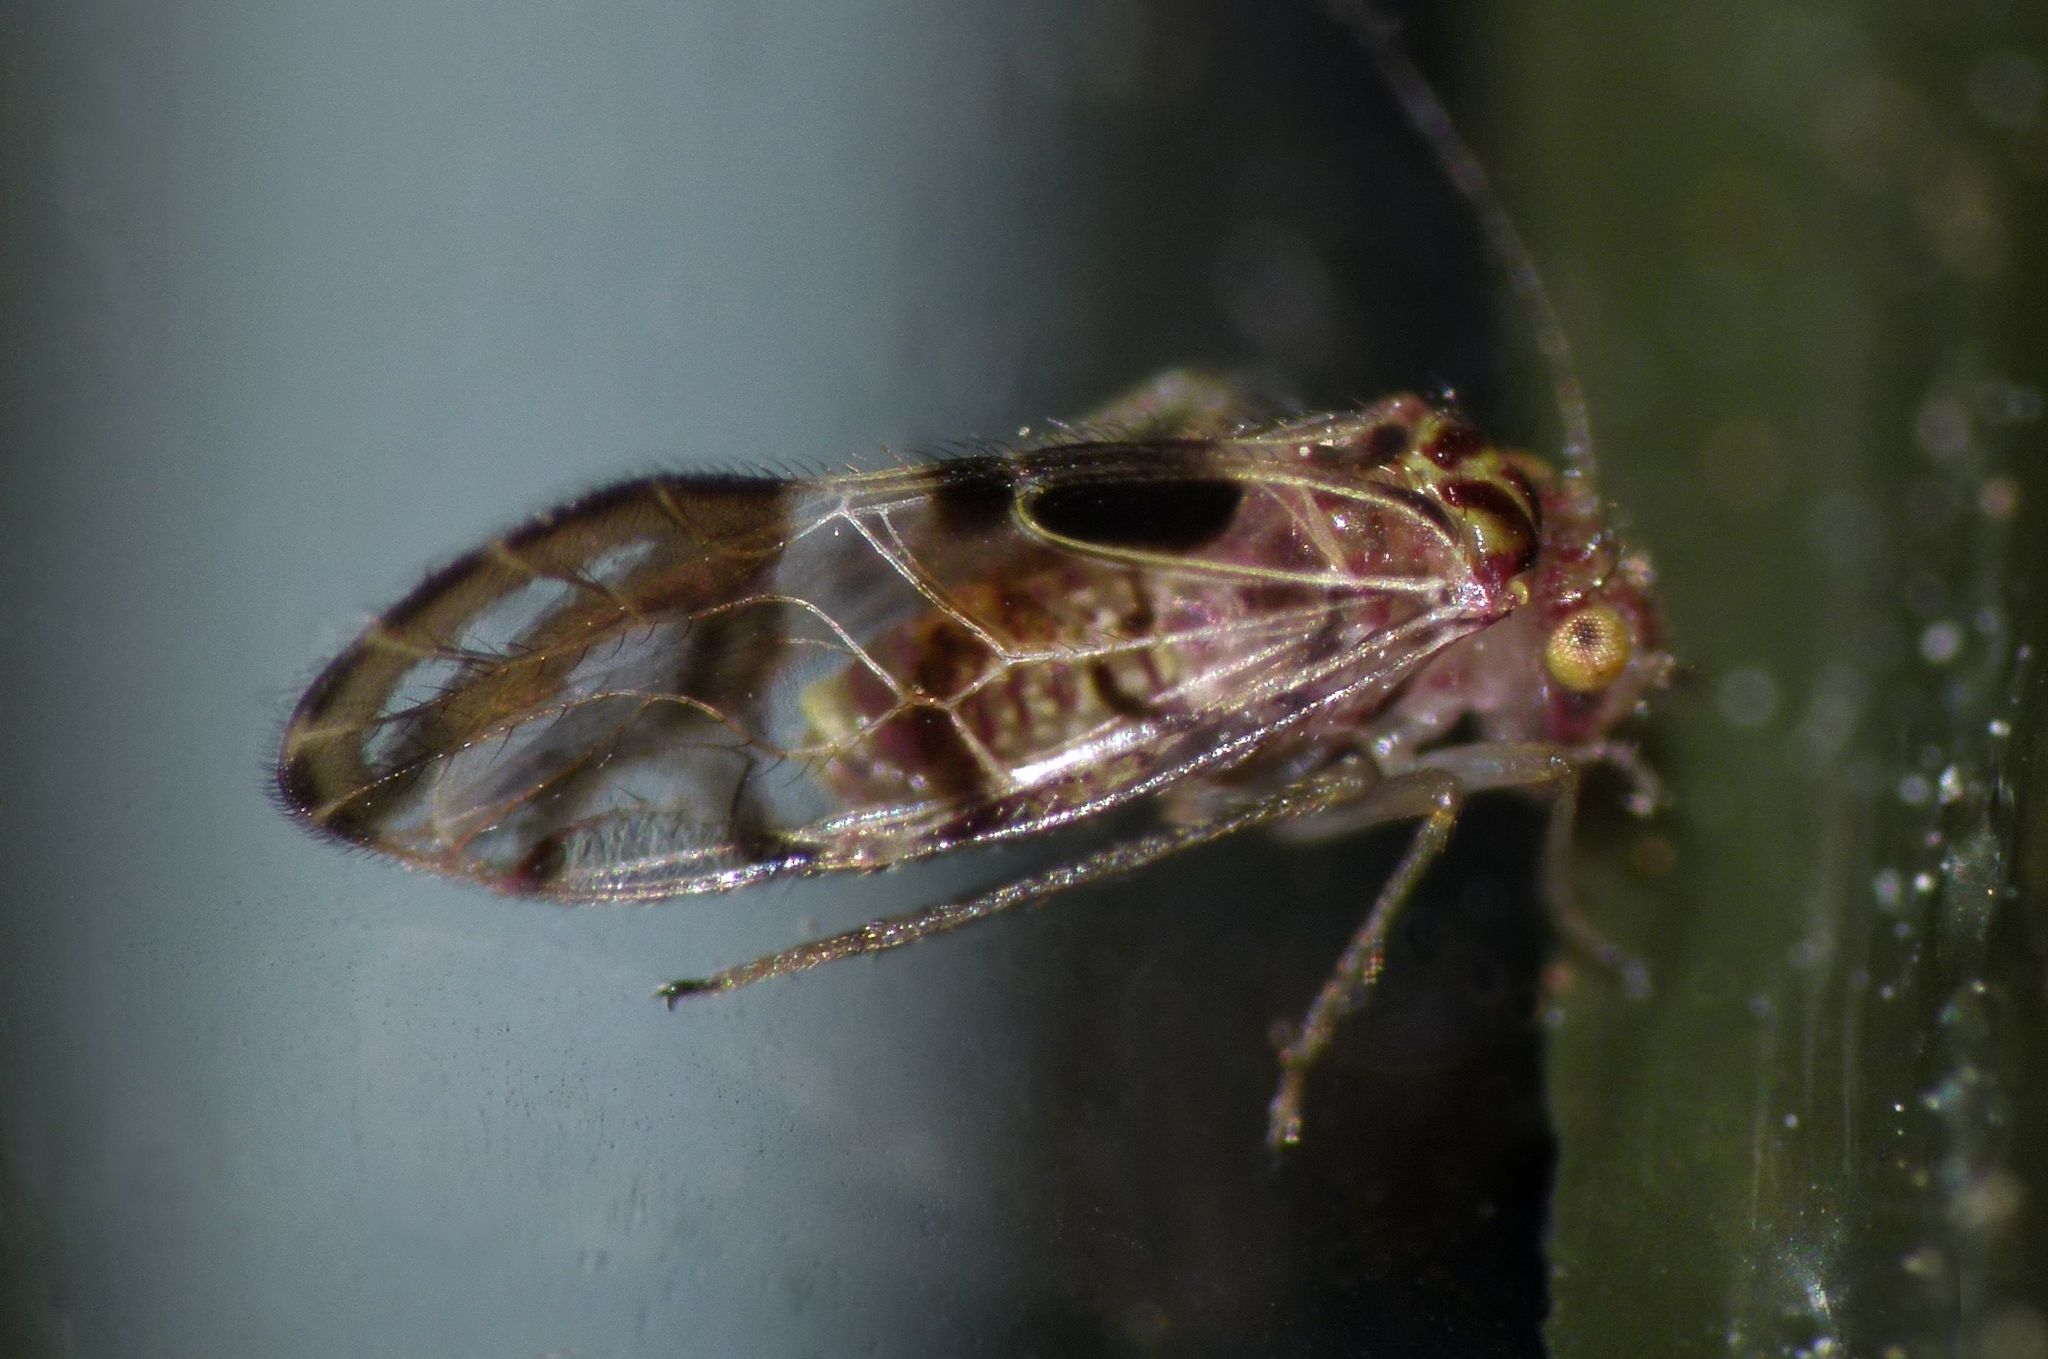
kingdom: Animalia
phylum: Arthropoda
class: Insecta
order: Psocodea
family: Pseudocaeciliidae
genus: Zelandopsocus
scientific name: Zelandopsocus formosellus
